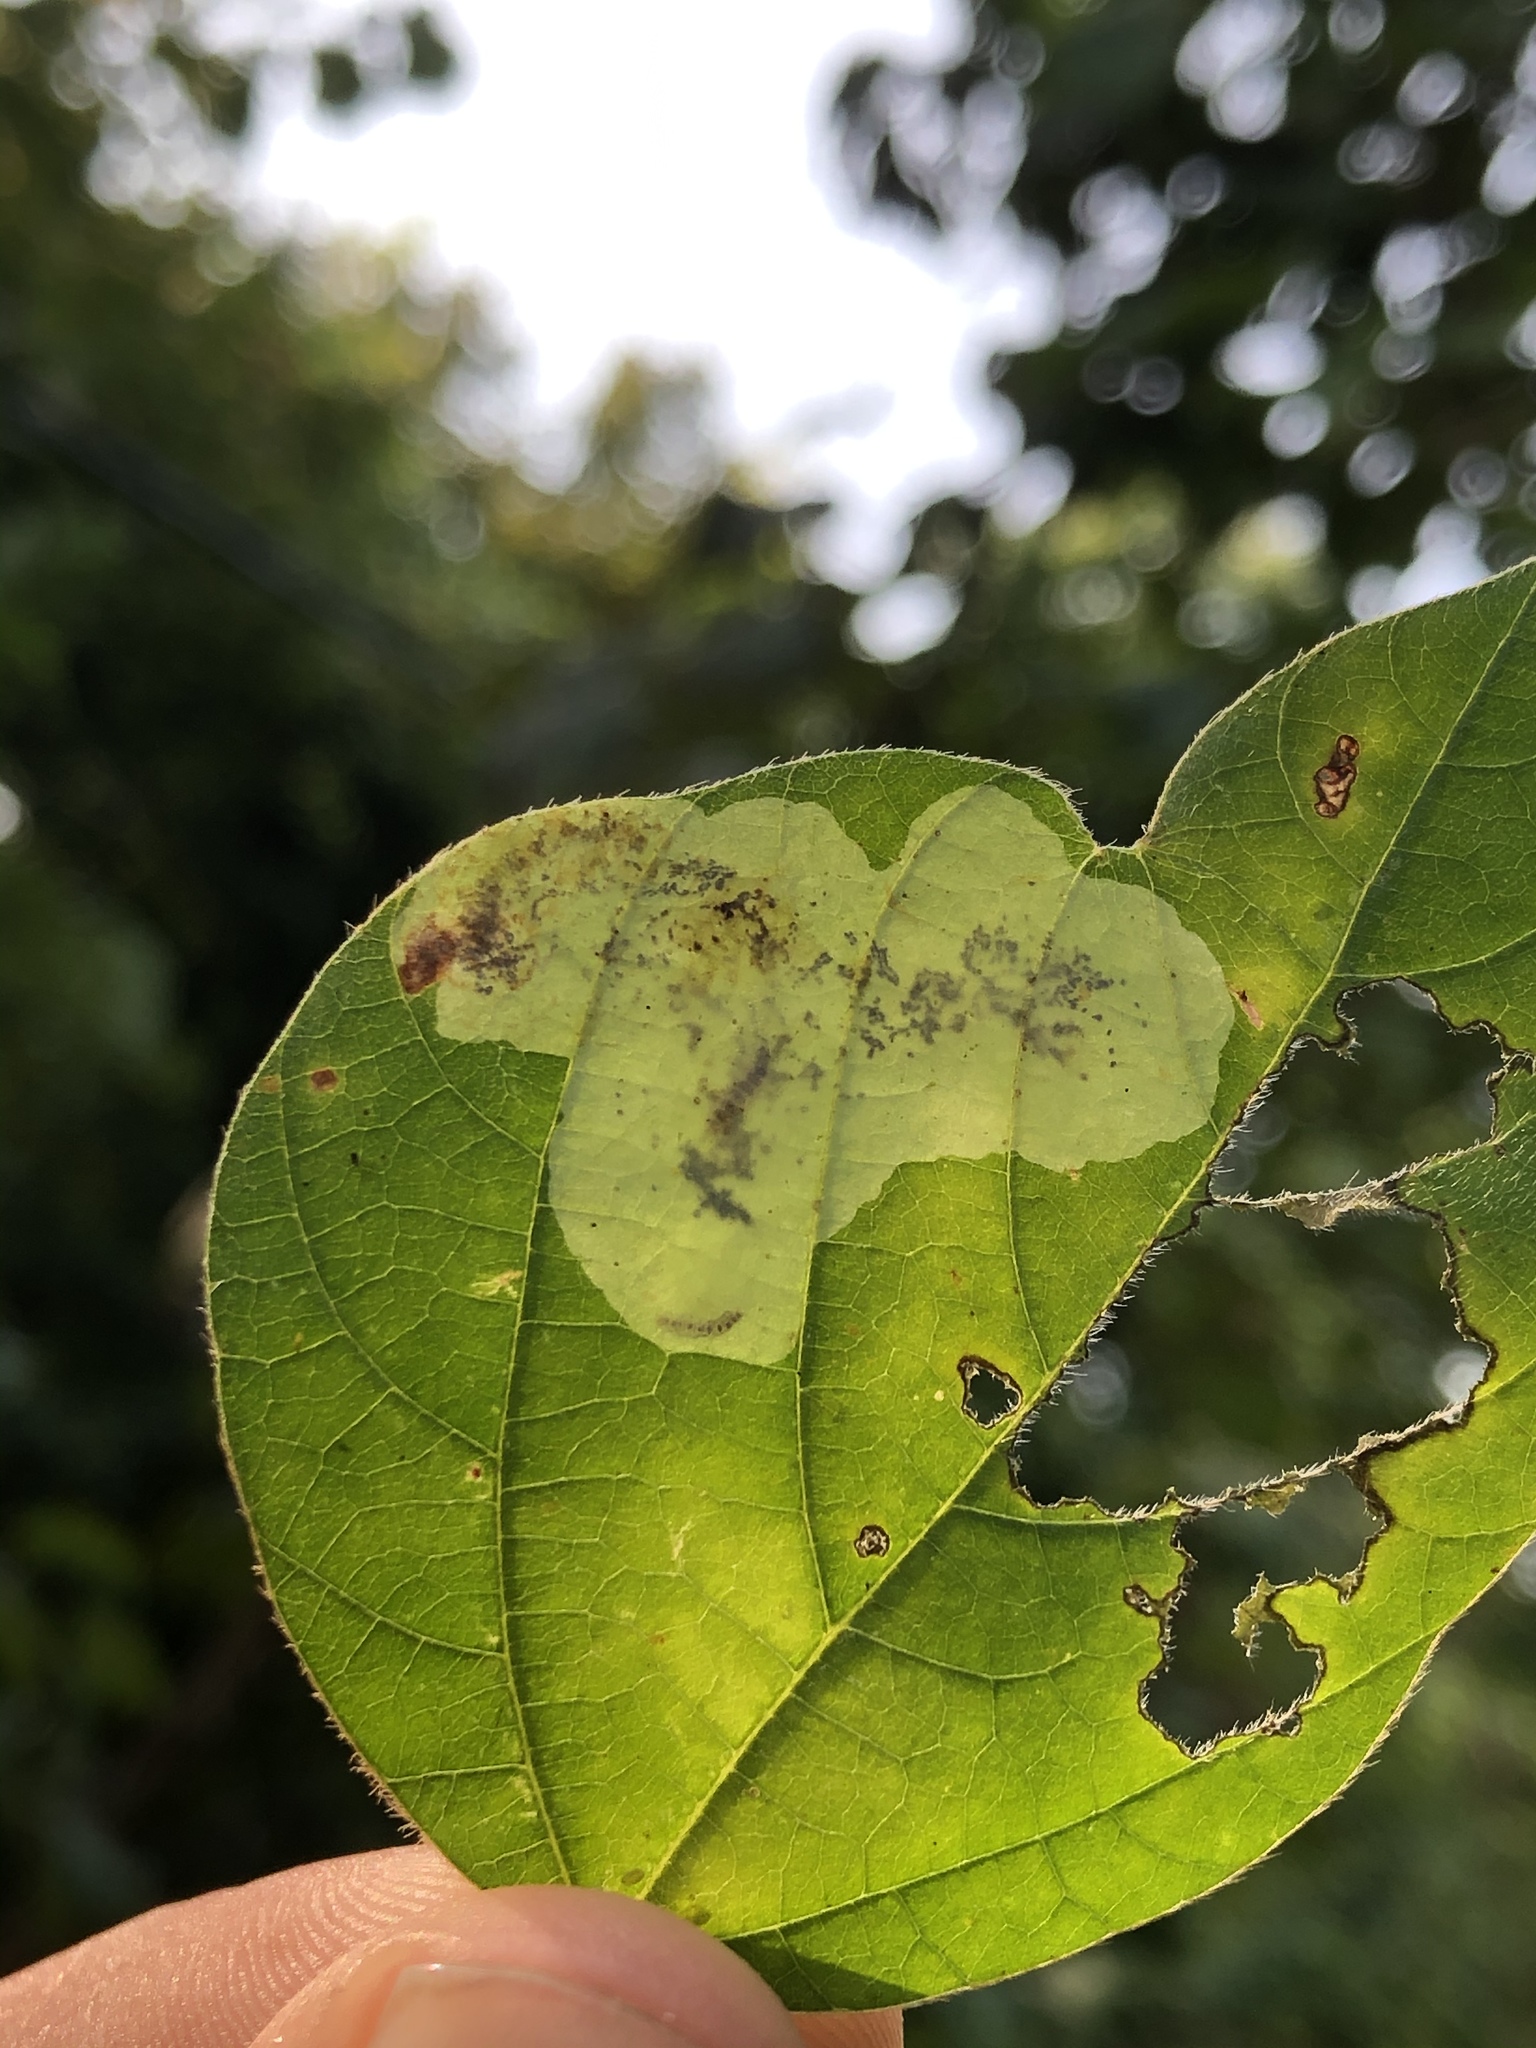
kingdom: Animalia
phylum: Arthropoda
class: Insecta
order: Lepidoptera
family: Gracillariidae
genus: Leucanthiza
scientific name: Leucanthiza amphicarpeaefoliella
